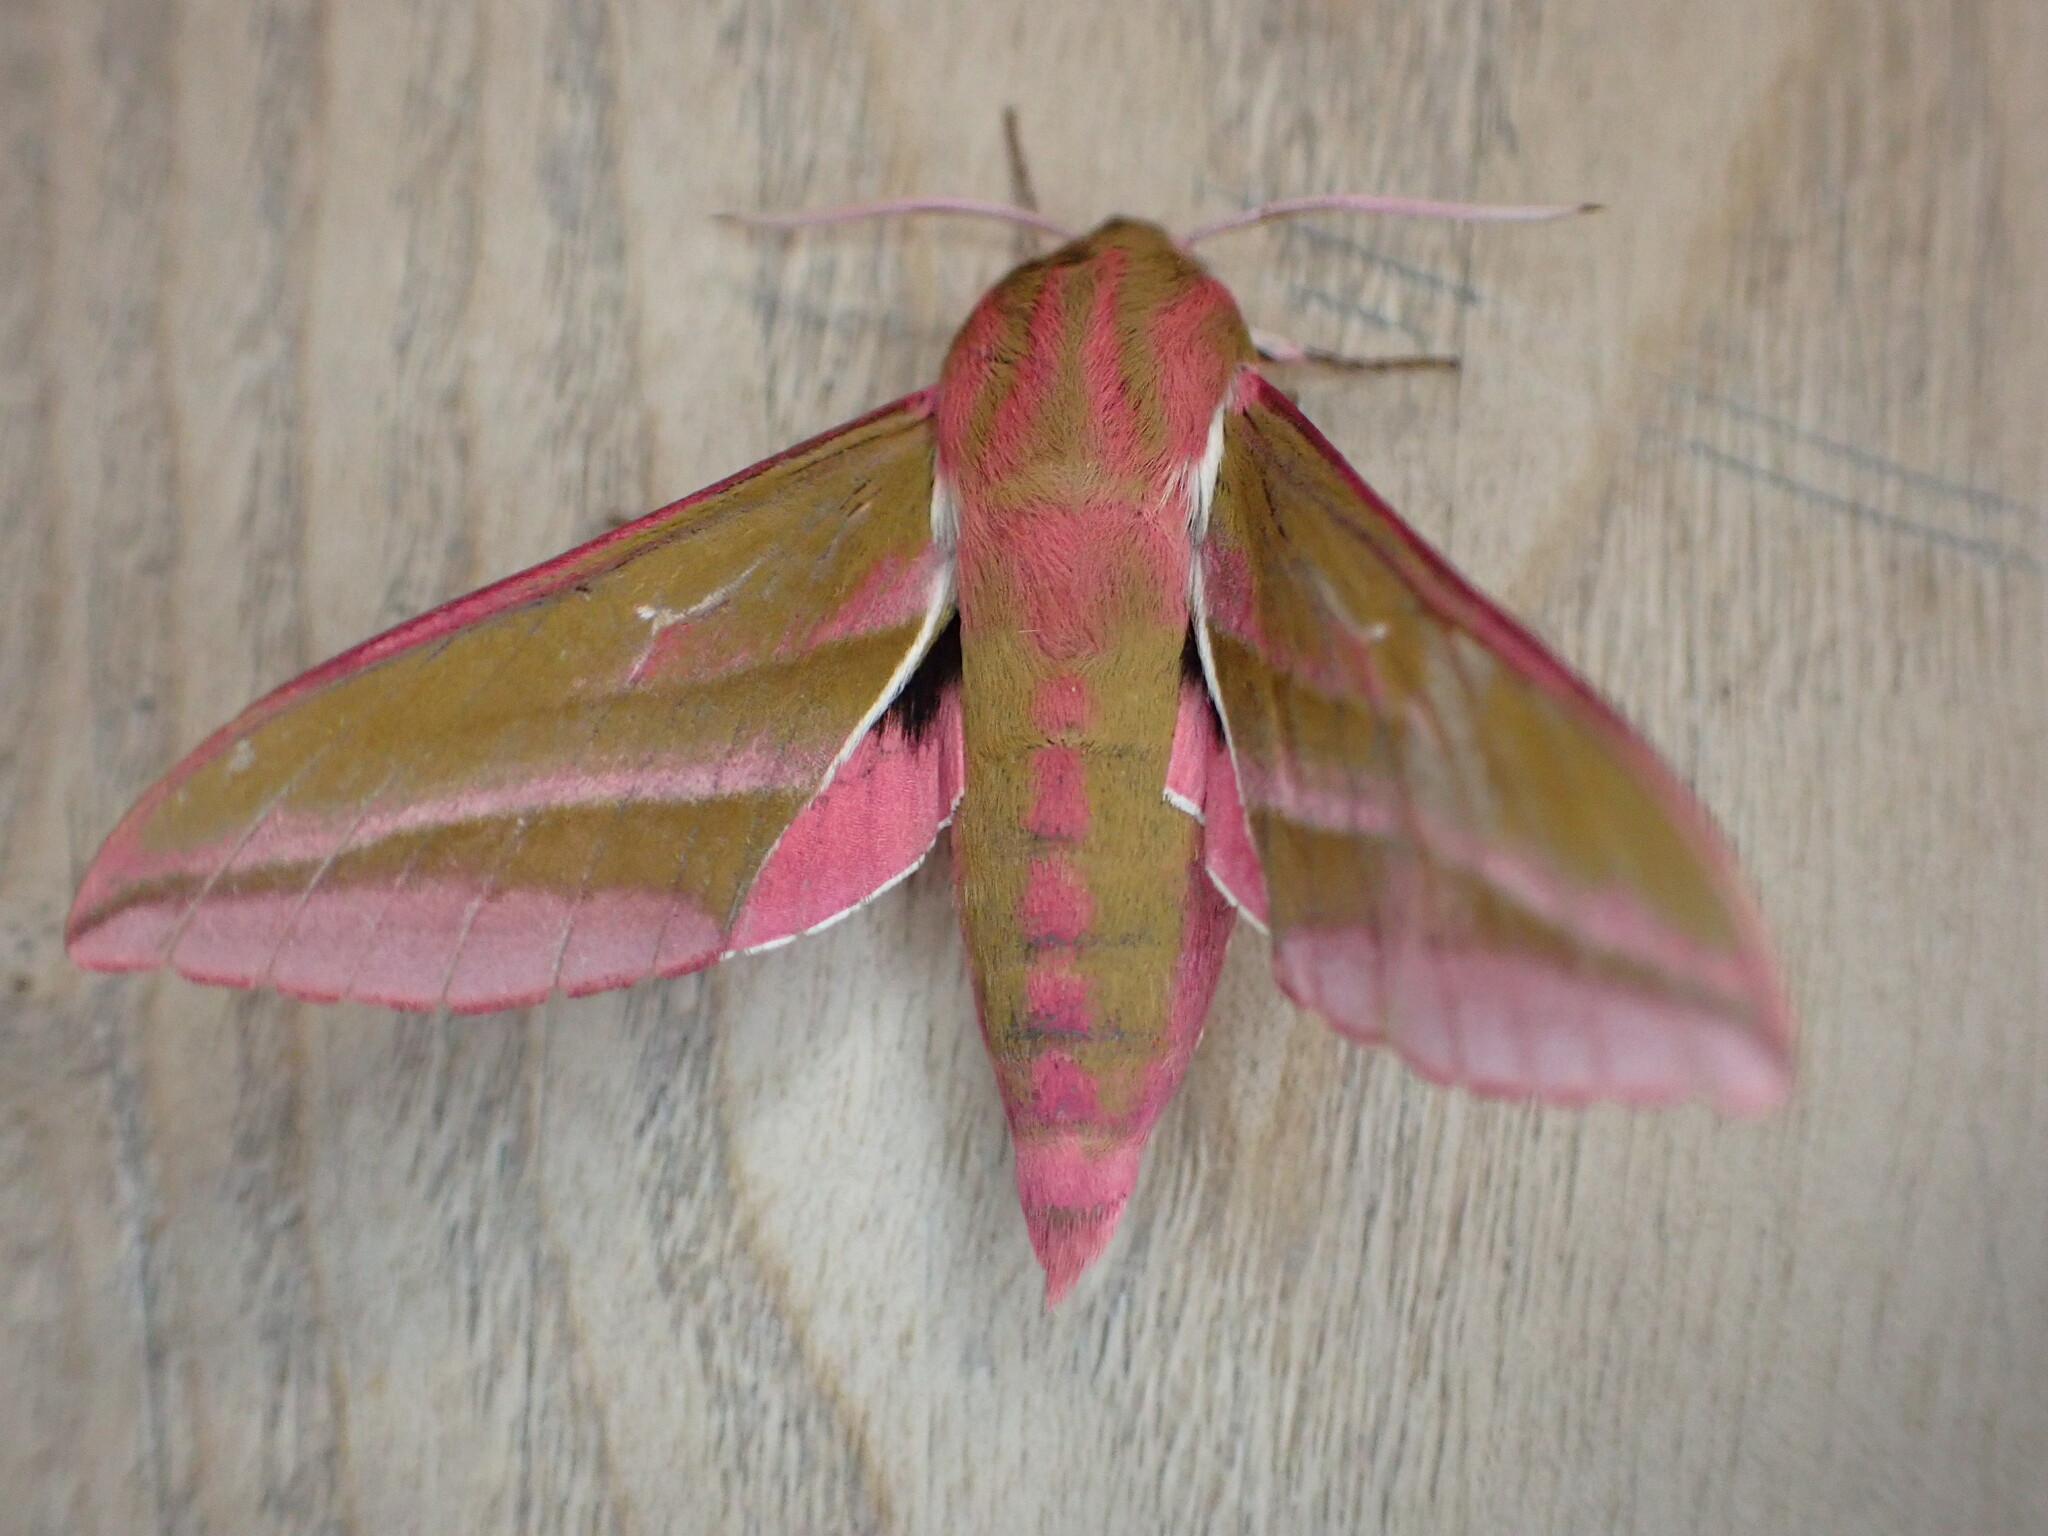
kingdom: Animalia
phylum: Arthropoda
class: Insecta
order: Lepidoptera
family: Sphingidae
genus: Deilephila
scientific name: Deilephila elpenor
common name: Elephant hawk-moth
